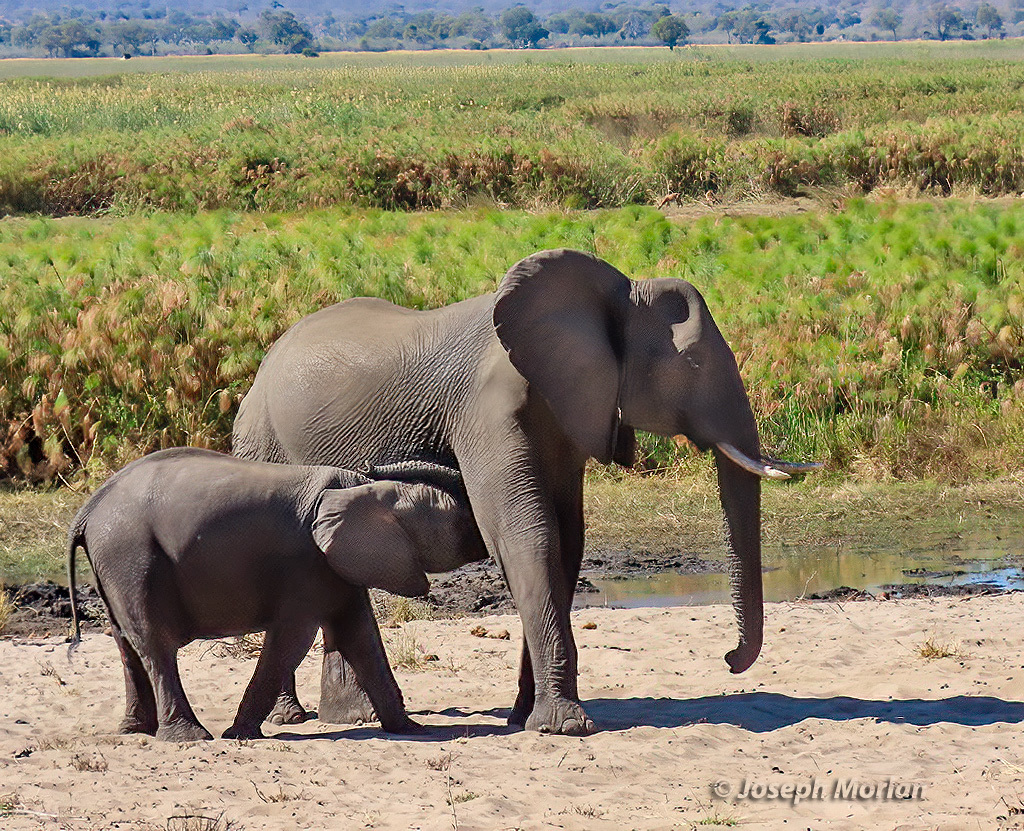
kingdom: Animalia
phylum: Chordata
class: Mammalia
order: Proboscidea
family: Elephantidae
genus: Loxodonta
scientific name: Loxodonta africana
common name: African elephant
